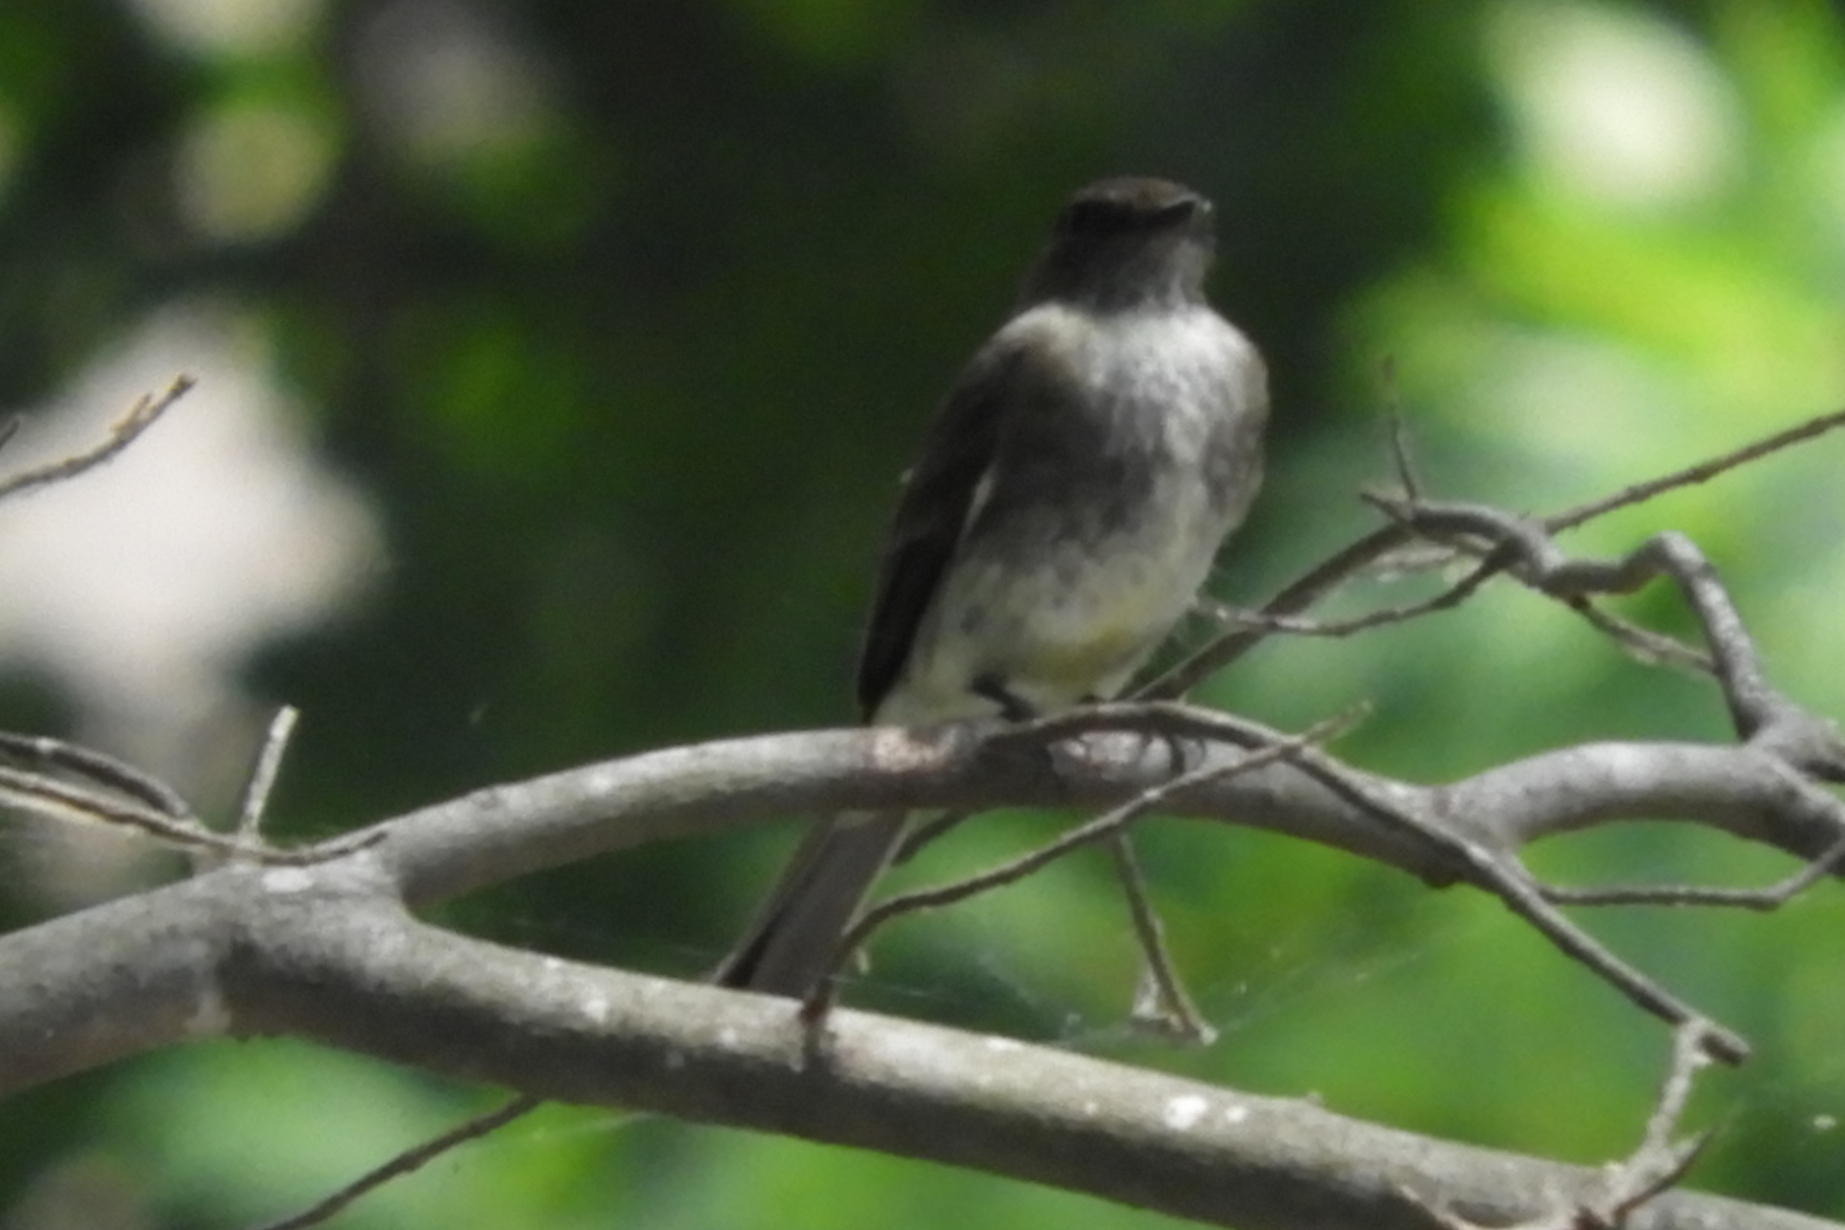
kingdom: Animalia
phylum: Chordata
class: Aves
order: Passeriformes
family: Tyrannidae
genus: Sayornis
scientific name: Sayornis phoebe
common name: Eastern phoebe
